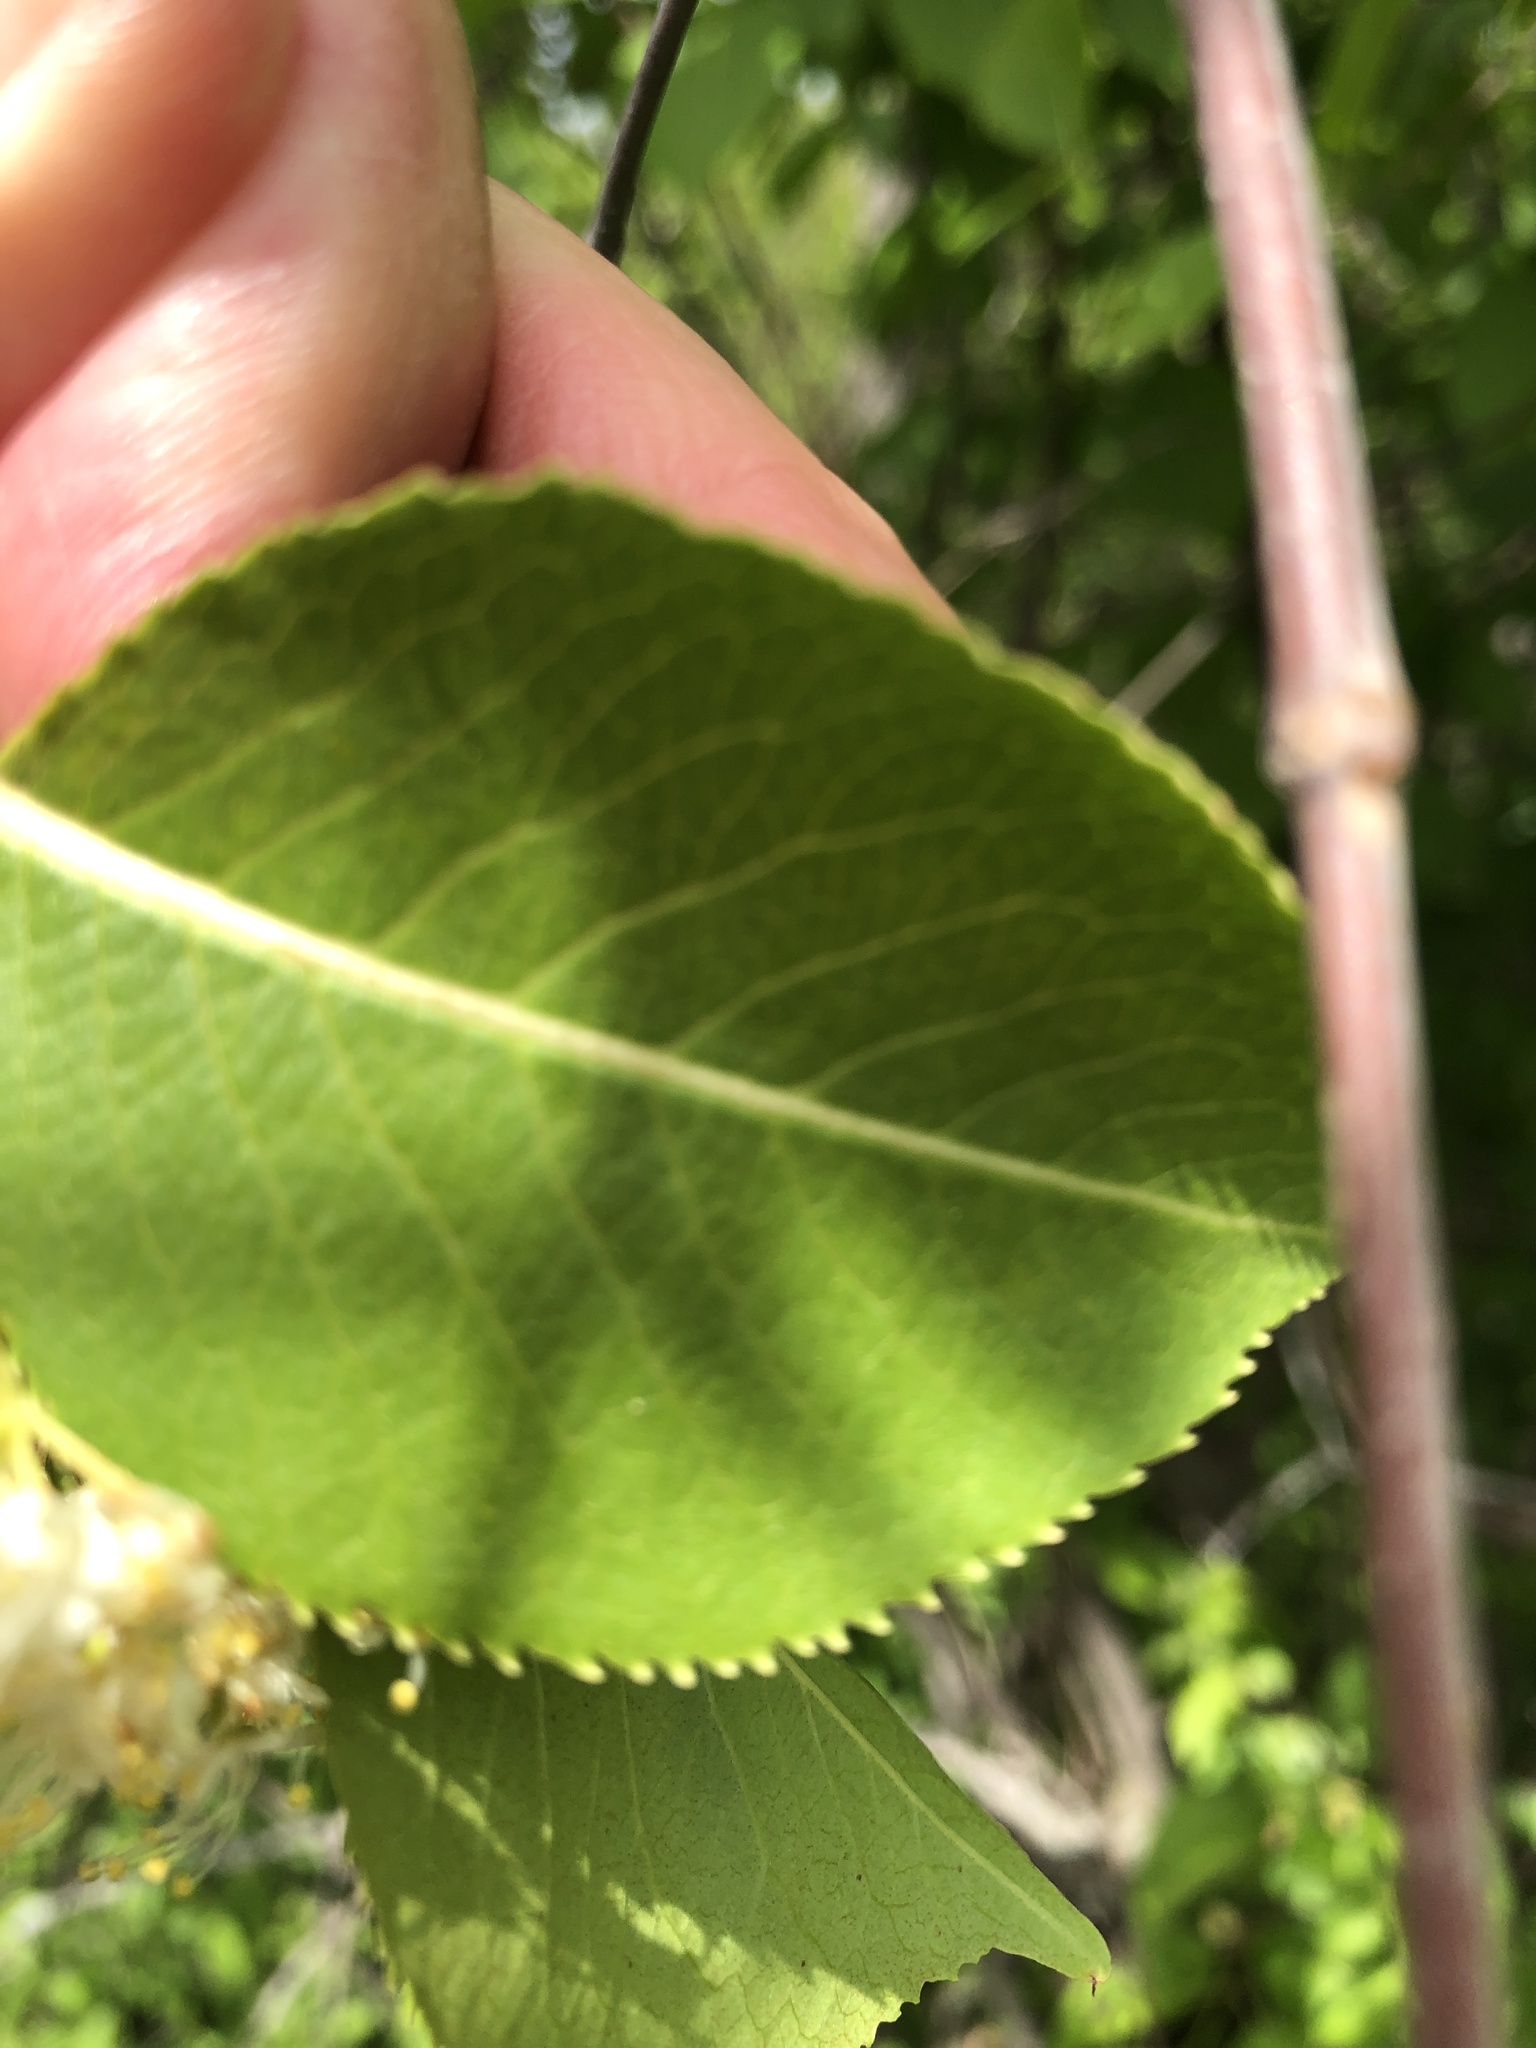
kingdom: Plantae
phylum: Tracheophyta
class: Magnoliopsida
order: Dipsacales
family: Viburnaceae
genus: Viburnum
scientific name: Viburnum lentago
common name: Black haw
